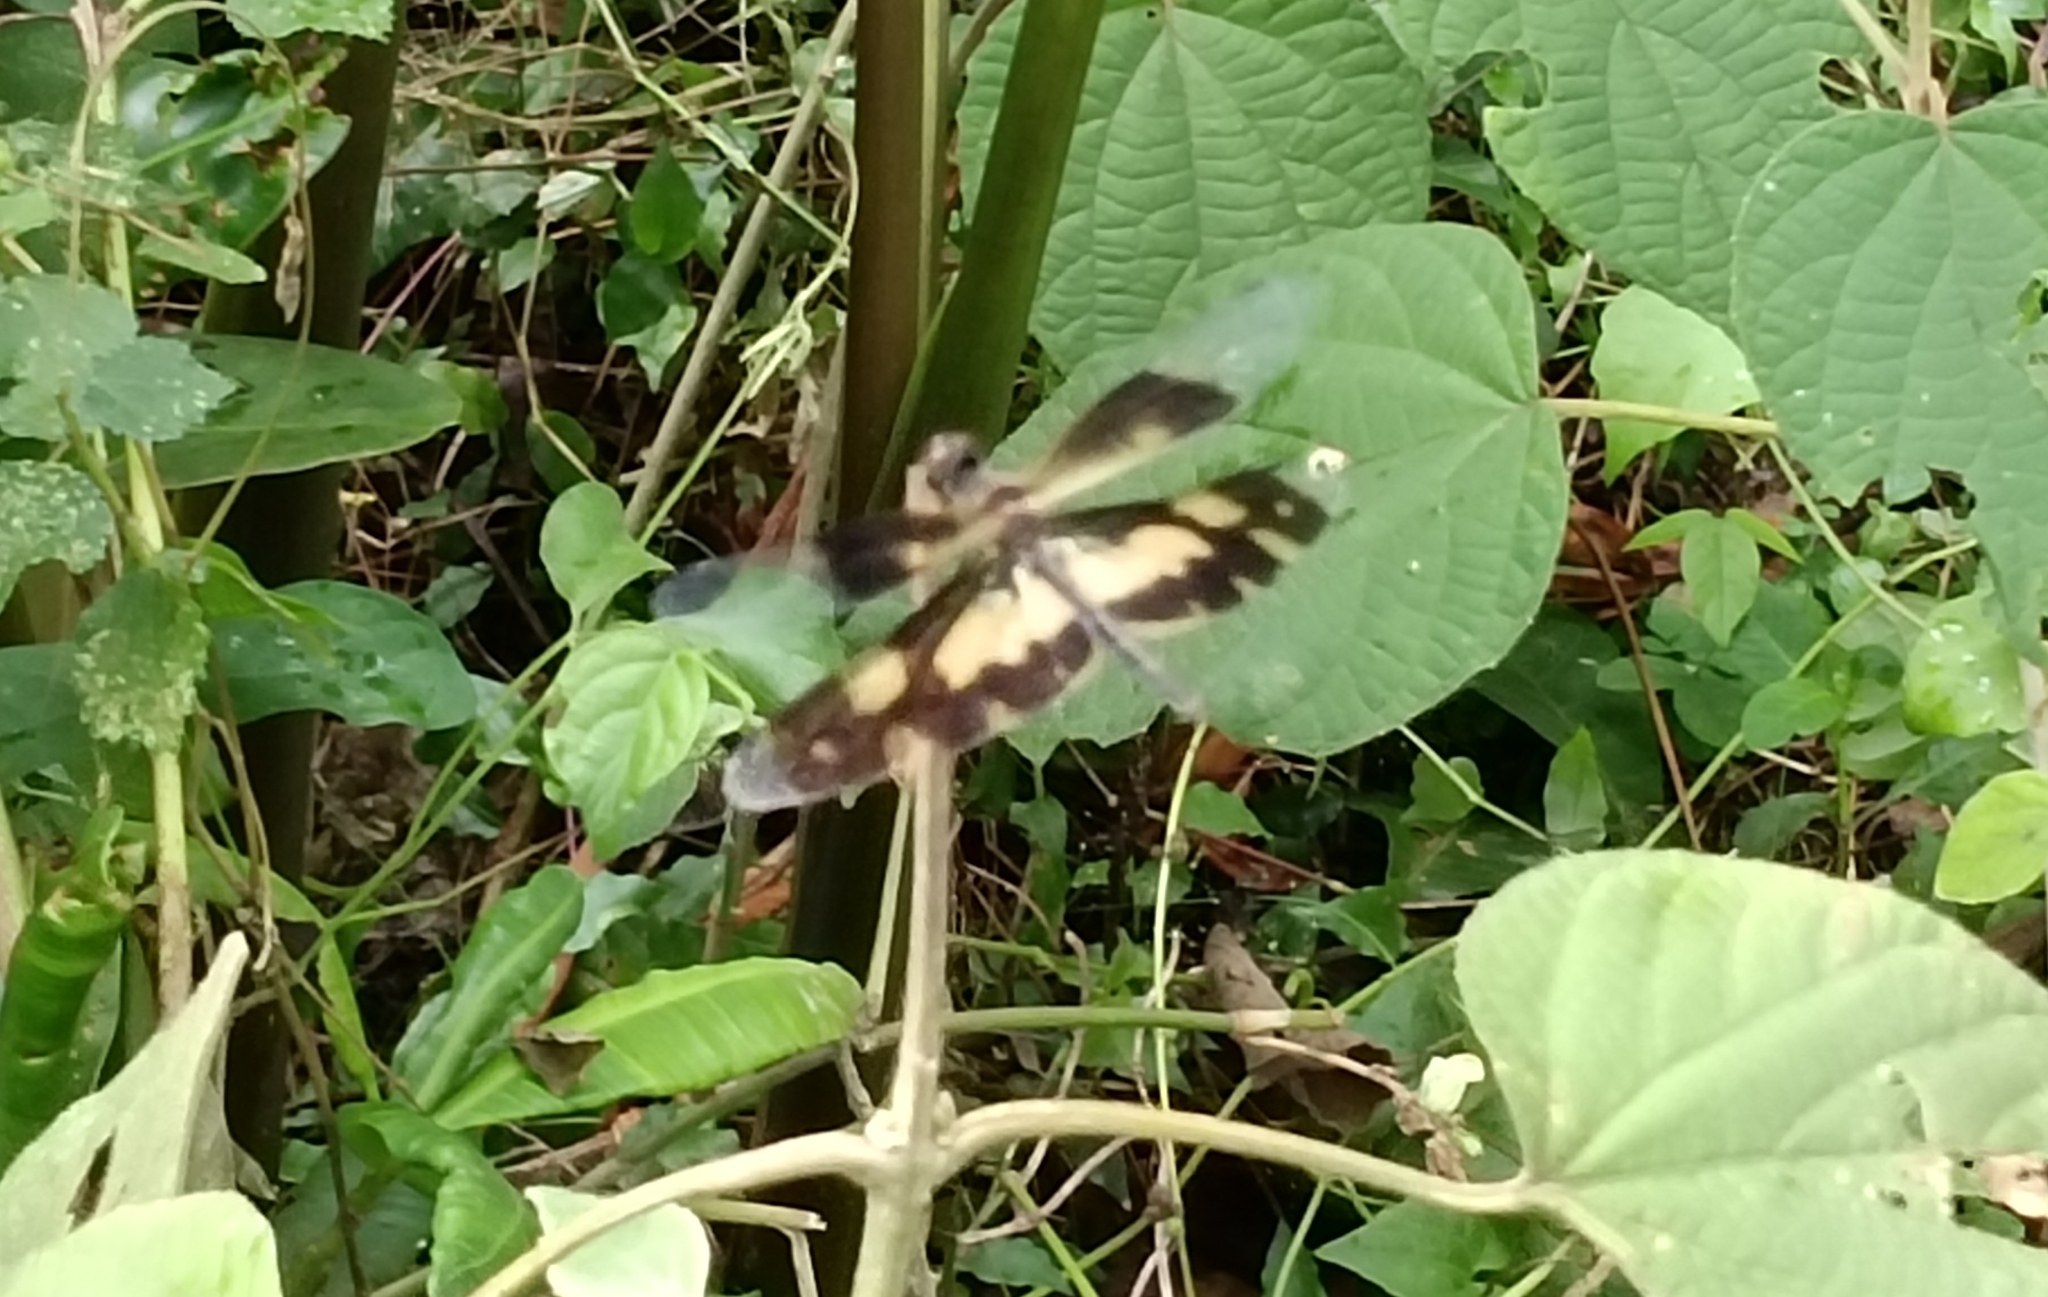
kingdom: Animalia
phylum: Arthropoda
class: Insecta
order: Odonata
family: Libellulidae
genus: Rhyothemis
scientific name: Rhyothemis variegata
